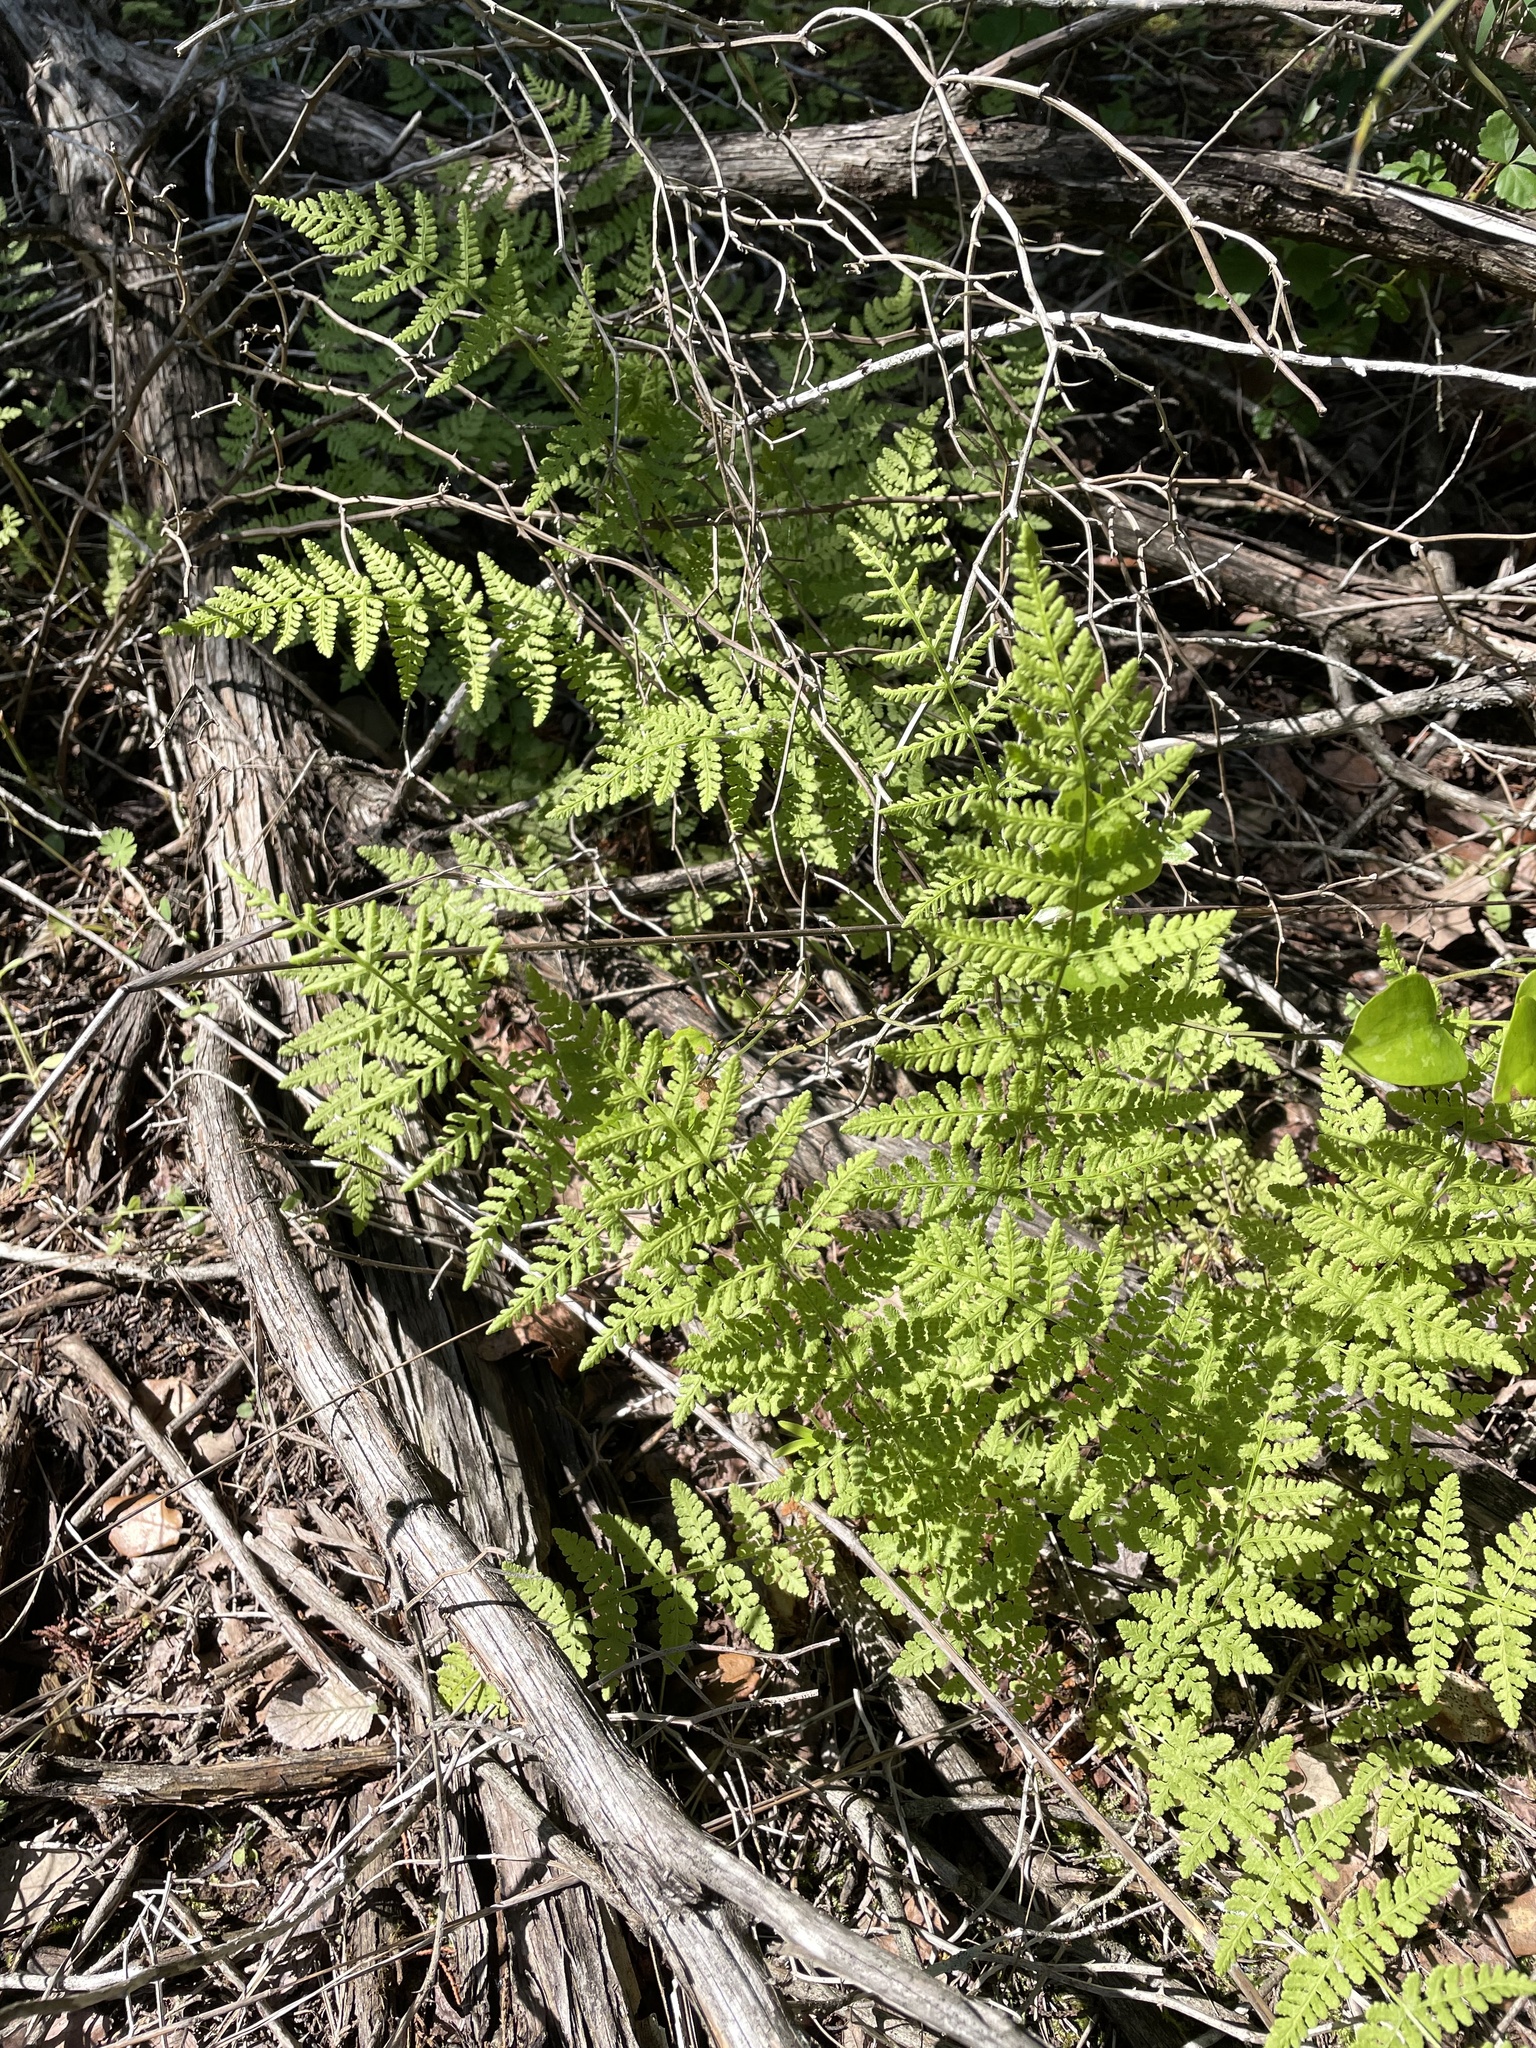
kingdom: Plantae
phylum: Tracheophyta
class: Polypodiopsida
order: Polypodiales
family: Woodsiaceae
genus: Physematium
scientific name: Physematium obtusum
